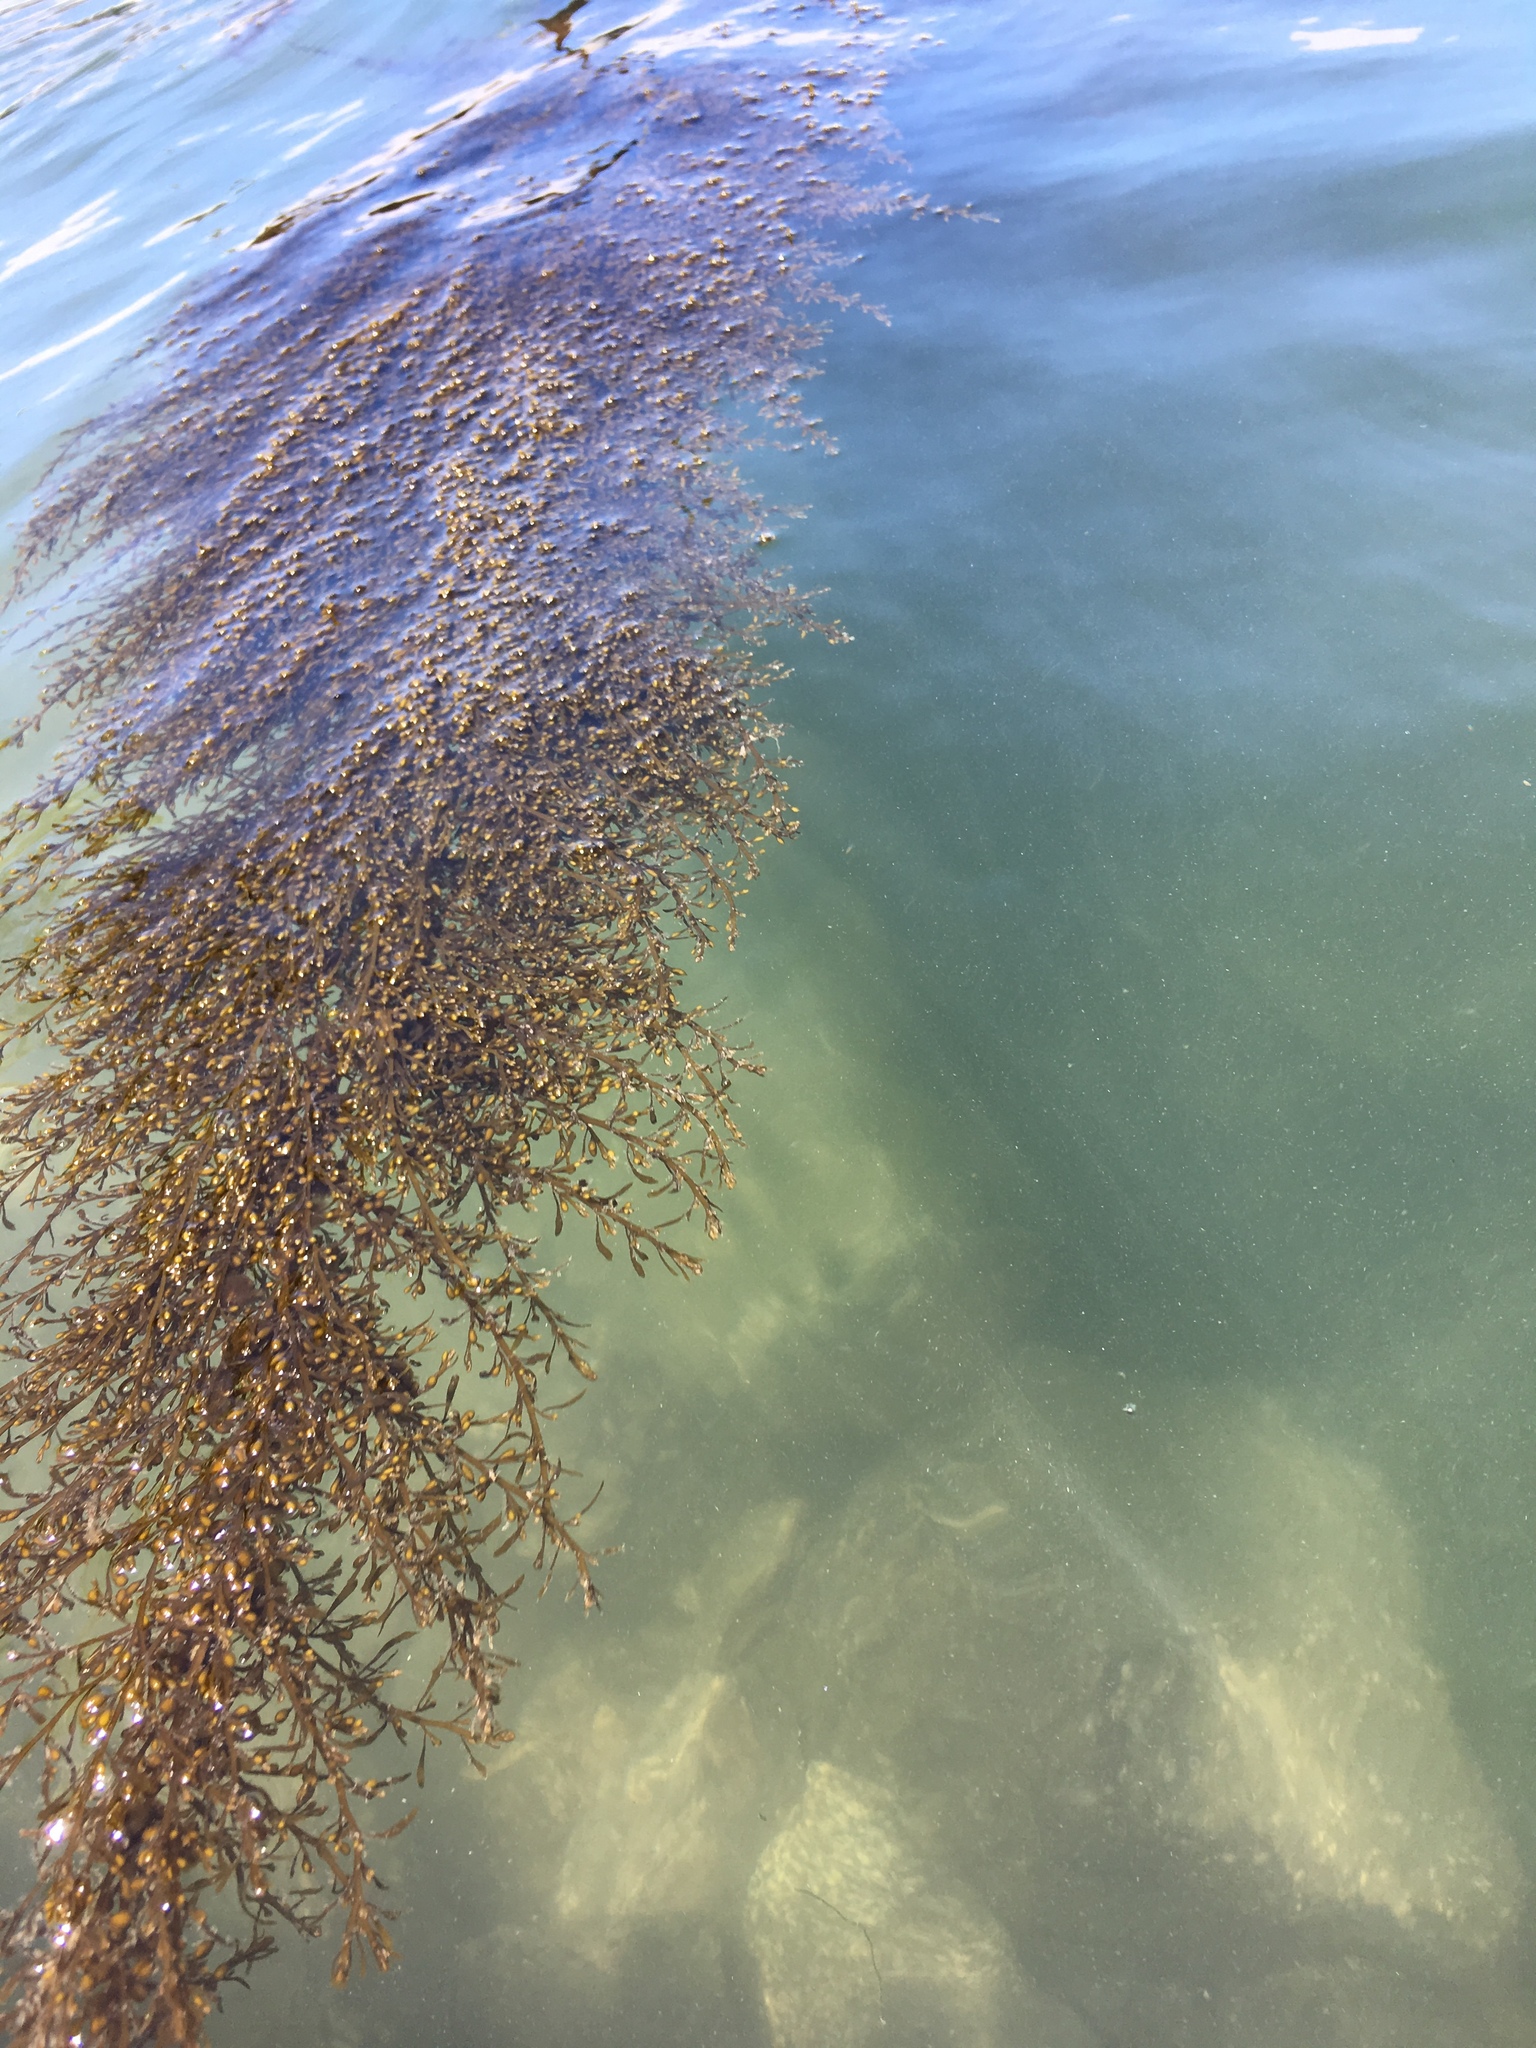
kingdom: Chromista
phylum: Ochrophyta
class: Phaeophyceae
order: Fucales
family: Sargassaceae
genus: Sargassum
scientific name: Sargassum muticum
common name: Japweed
